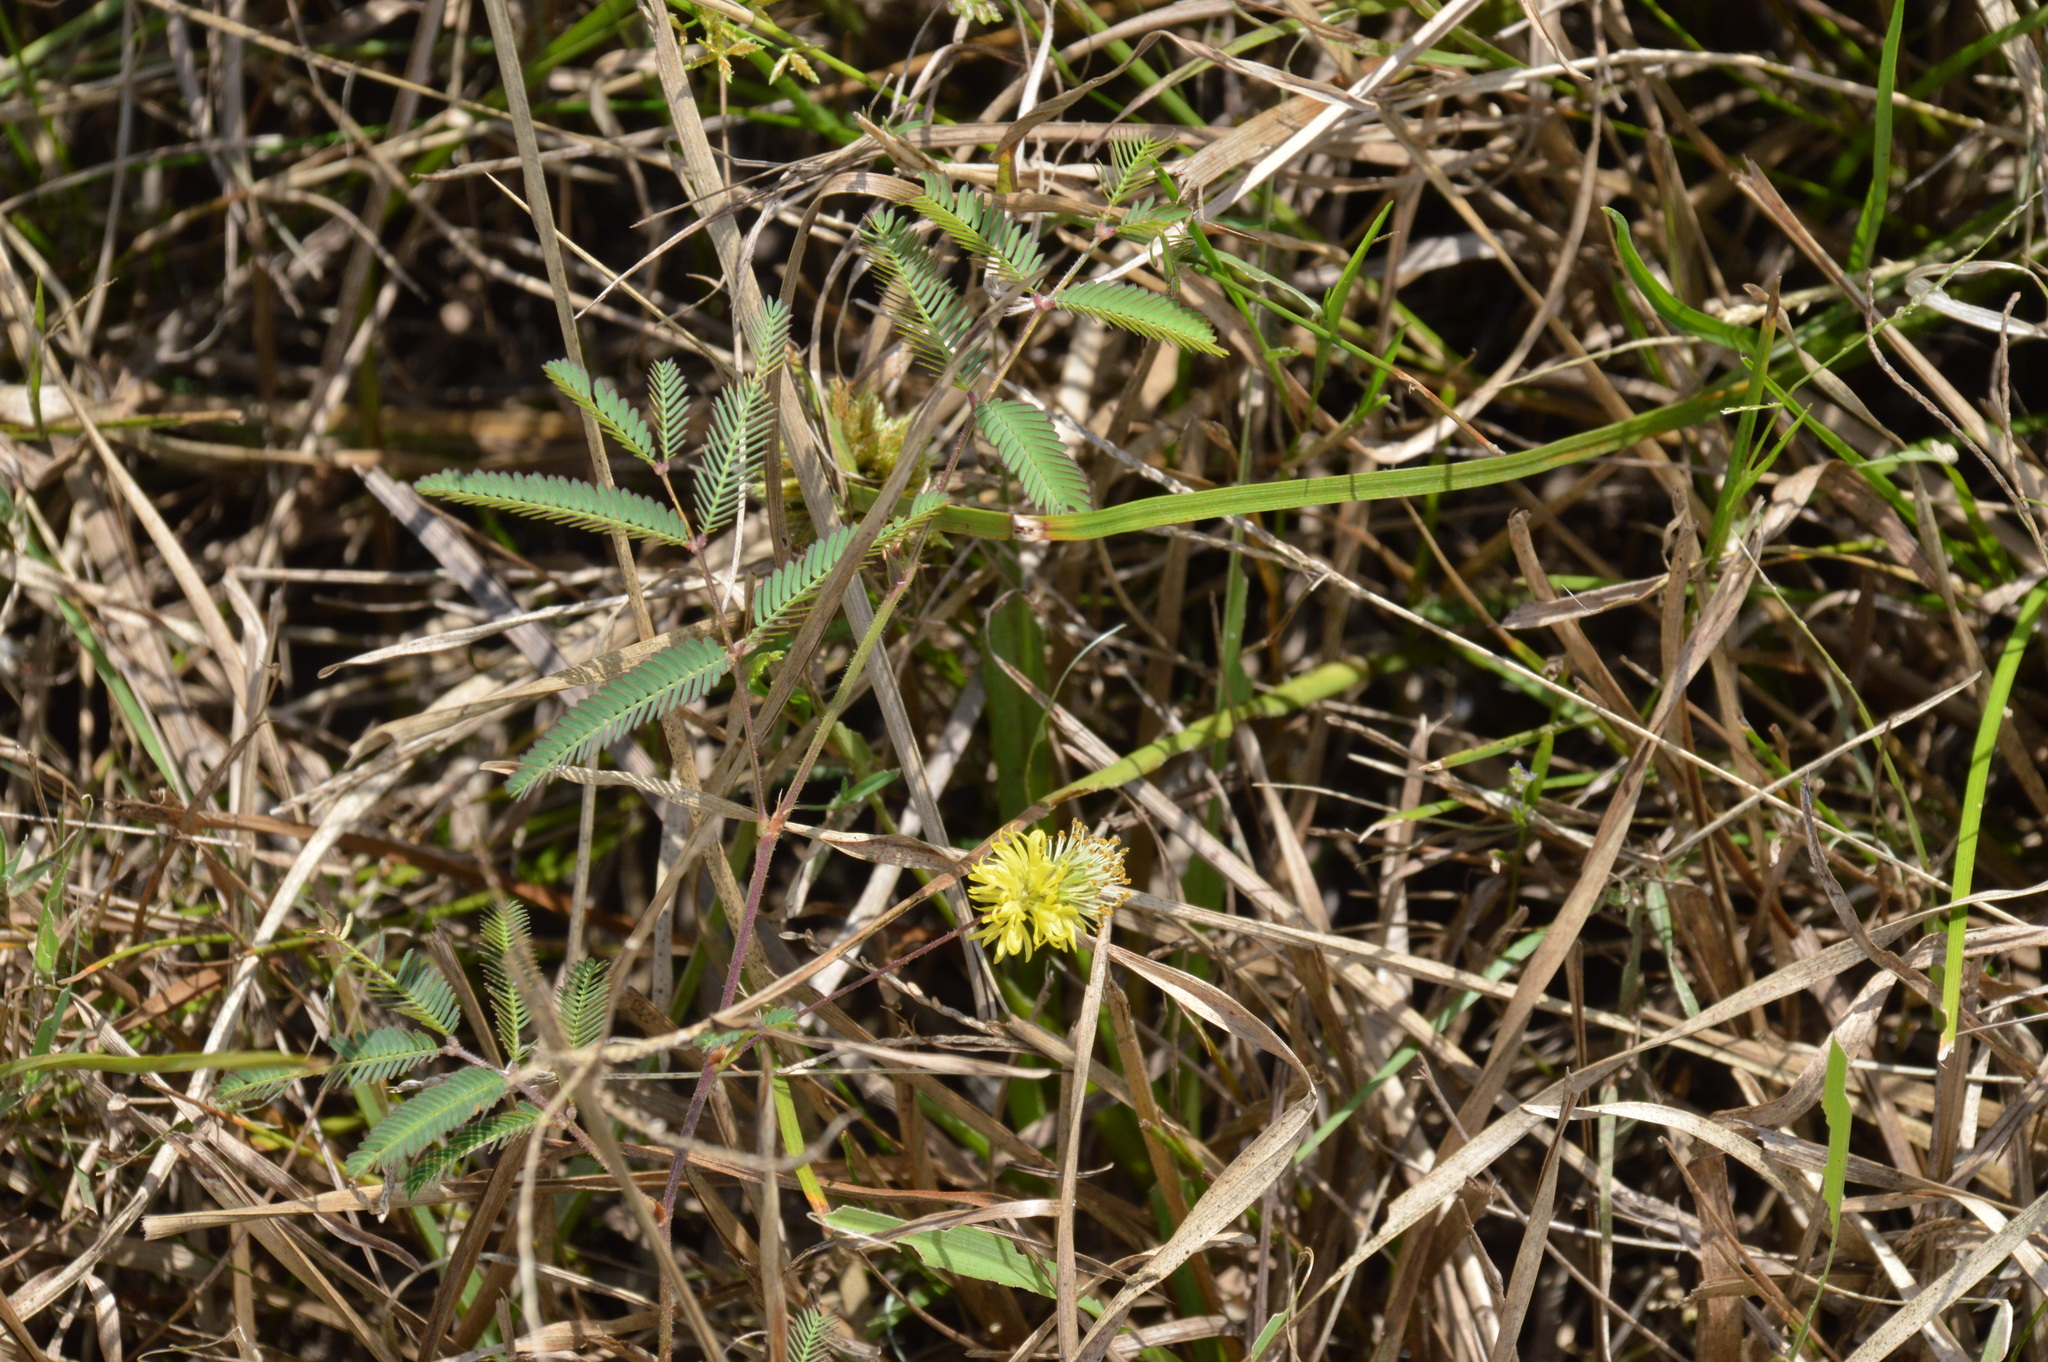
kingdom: Plantae
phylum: Tracheophyta
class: Magnoliopsida
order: Fabales
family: Fabaceae
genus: Neptunia
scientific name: Neptunia pubescens
